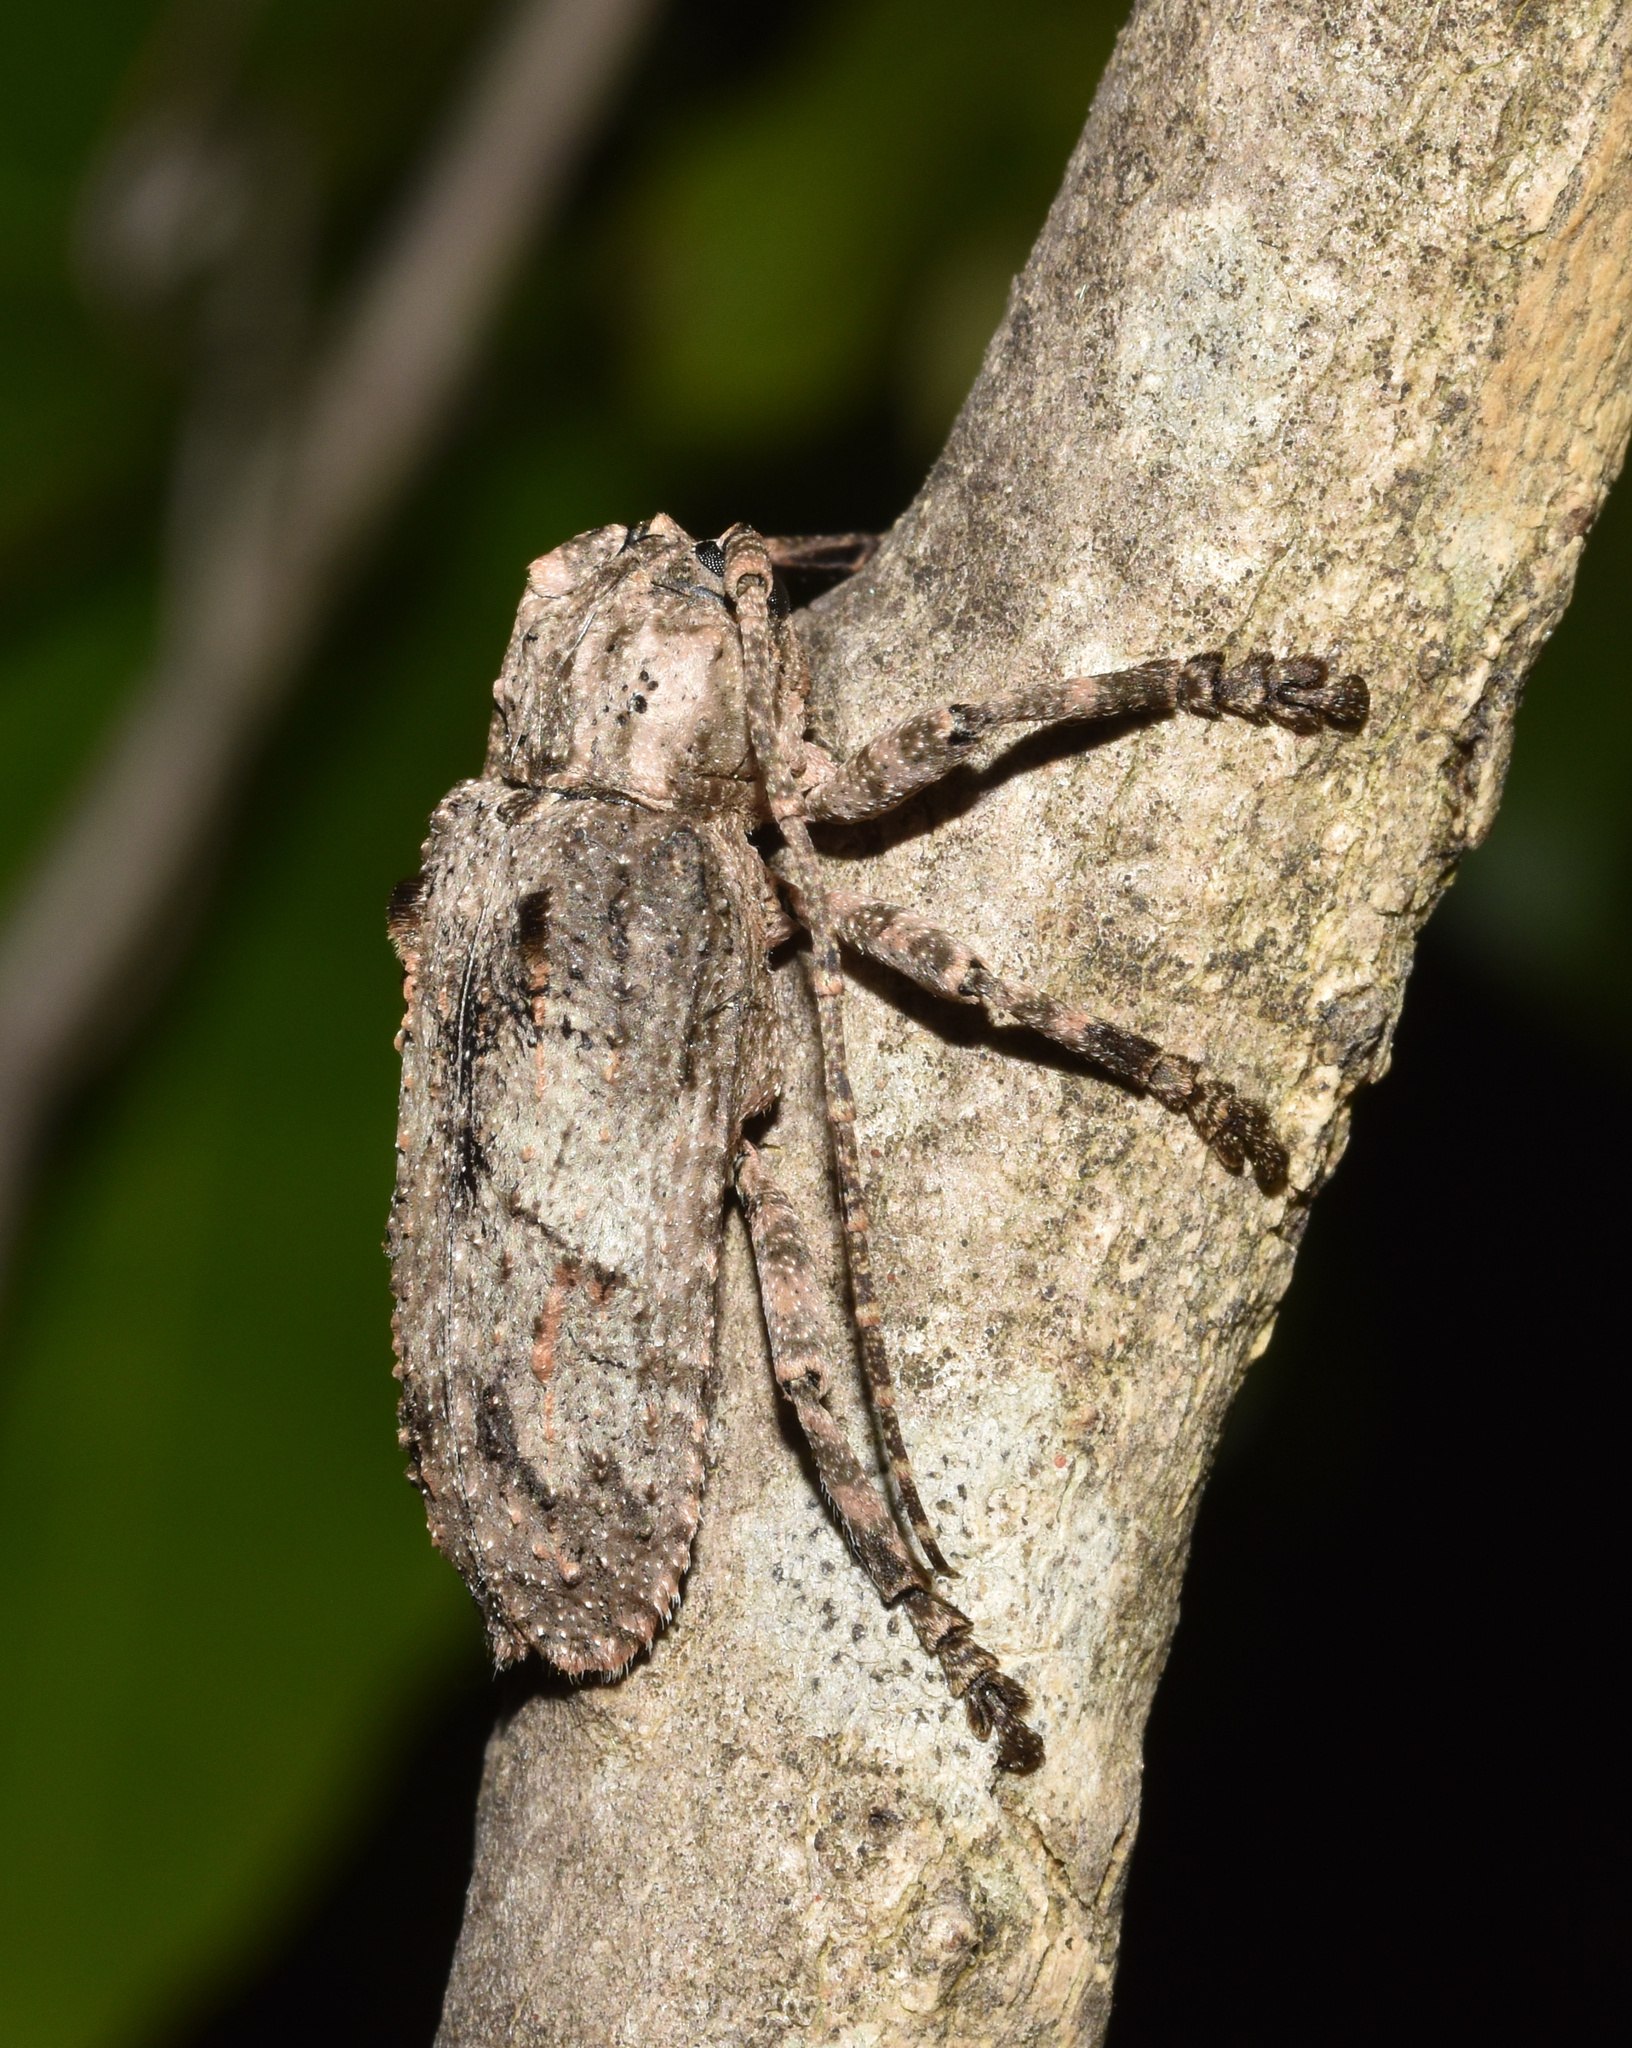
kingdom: Animalia
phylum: Arthropoda
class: Insecta
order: Coleoptera
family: Cerambycidae
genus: Hecyra
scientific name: Hecyra terrea
